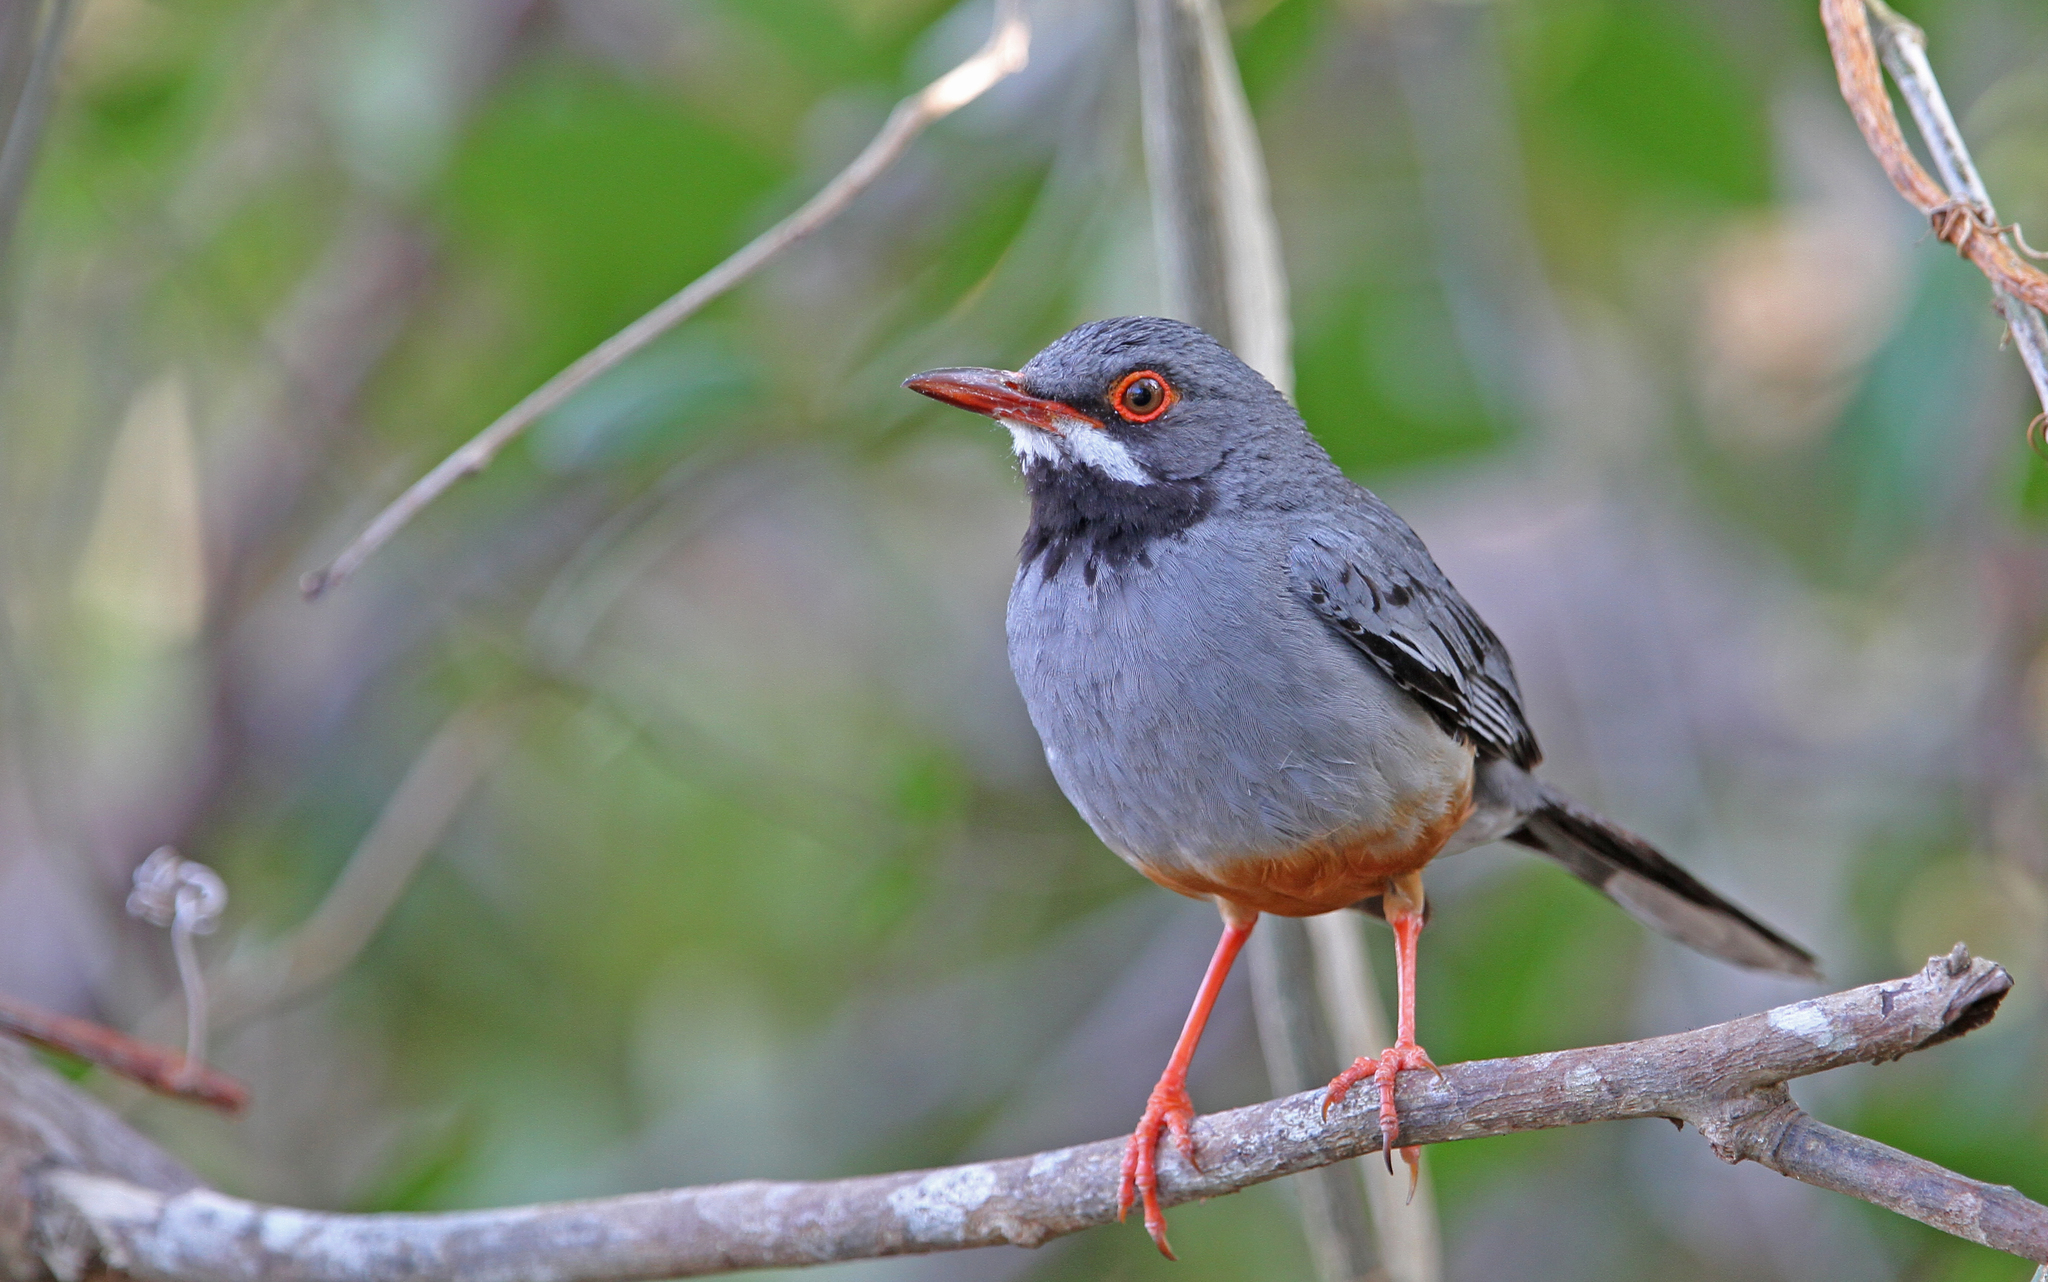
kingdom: Animalia
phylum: Chordata
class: Aves
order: Passeriformes
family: Turdidae
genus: Turdus
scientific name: Turdus plumbeus
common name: Red-legged thrush
